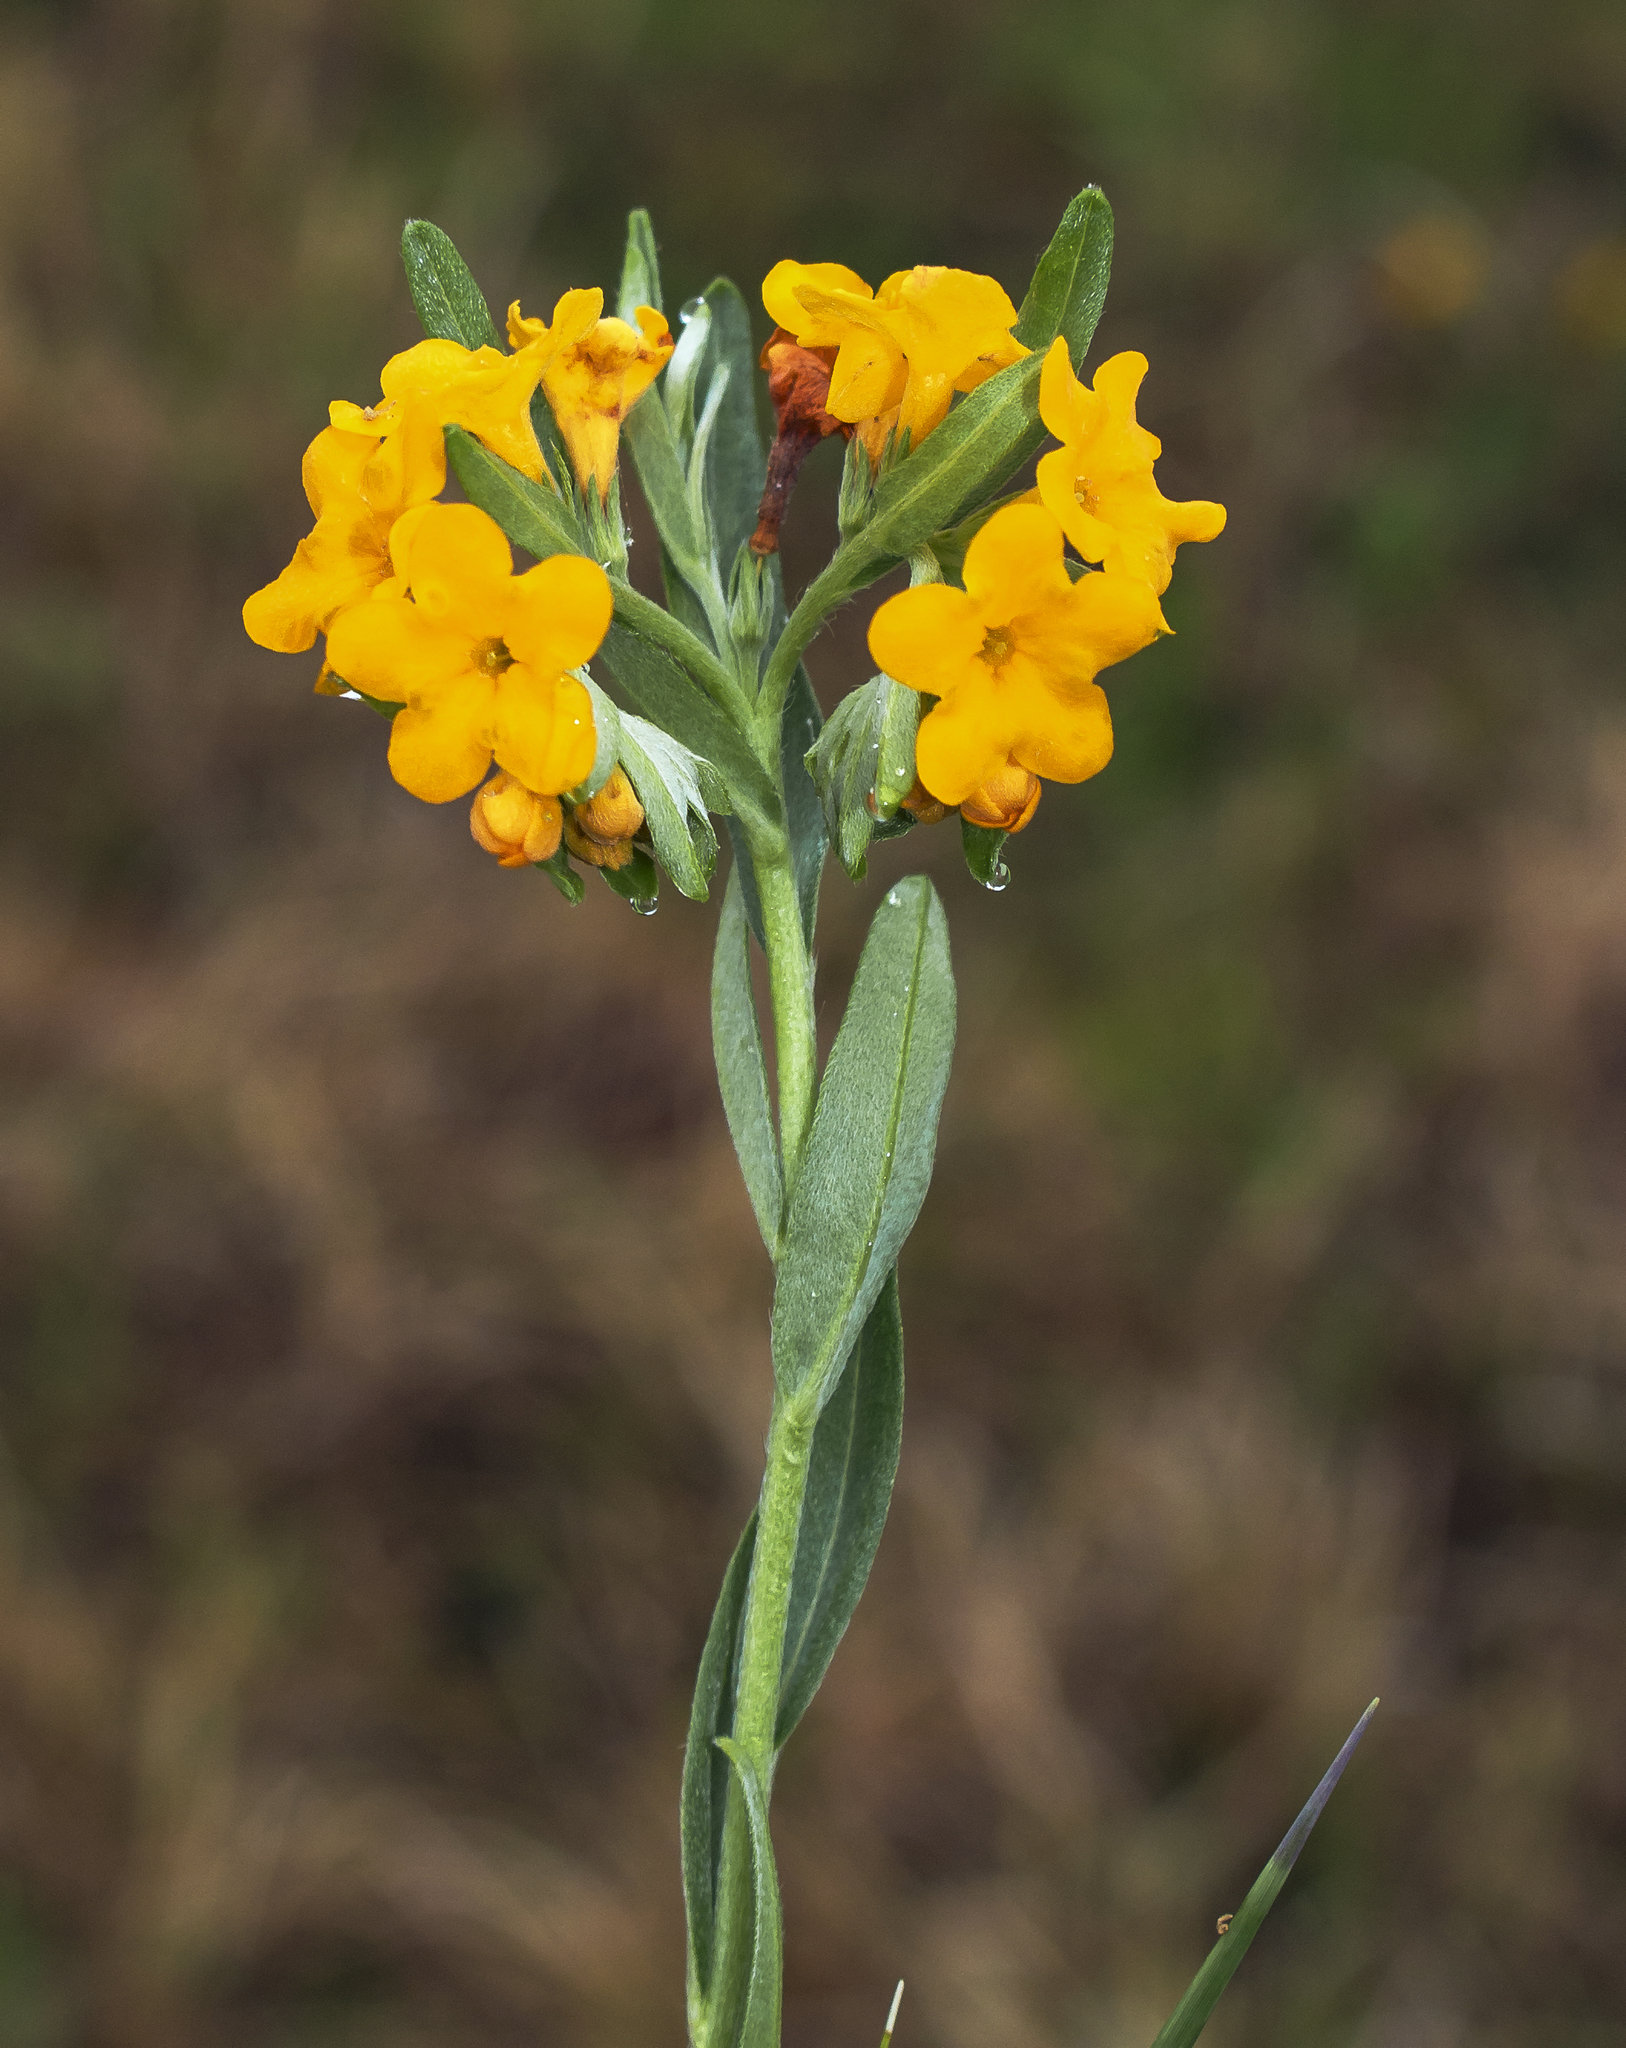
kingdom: Plantae
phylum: Tracheophyta
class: Magnoliopsida
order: Boraginales
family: Boraginaceae
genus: Lithospermum
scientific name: Lithospermum canescens
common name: Hoary puccoon
